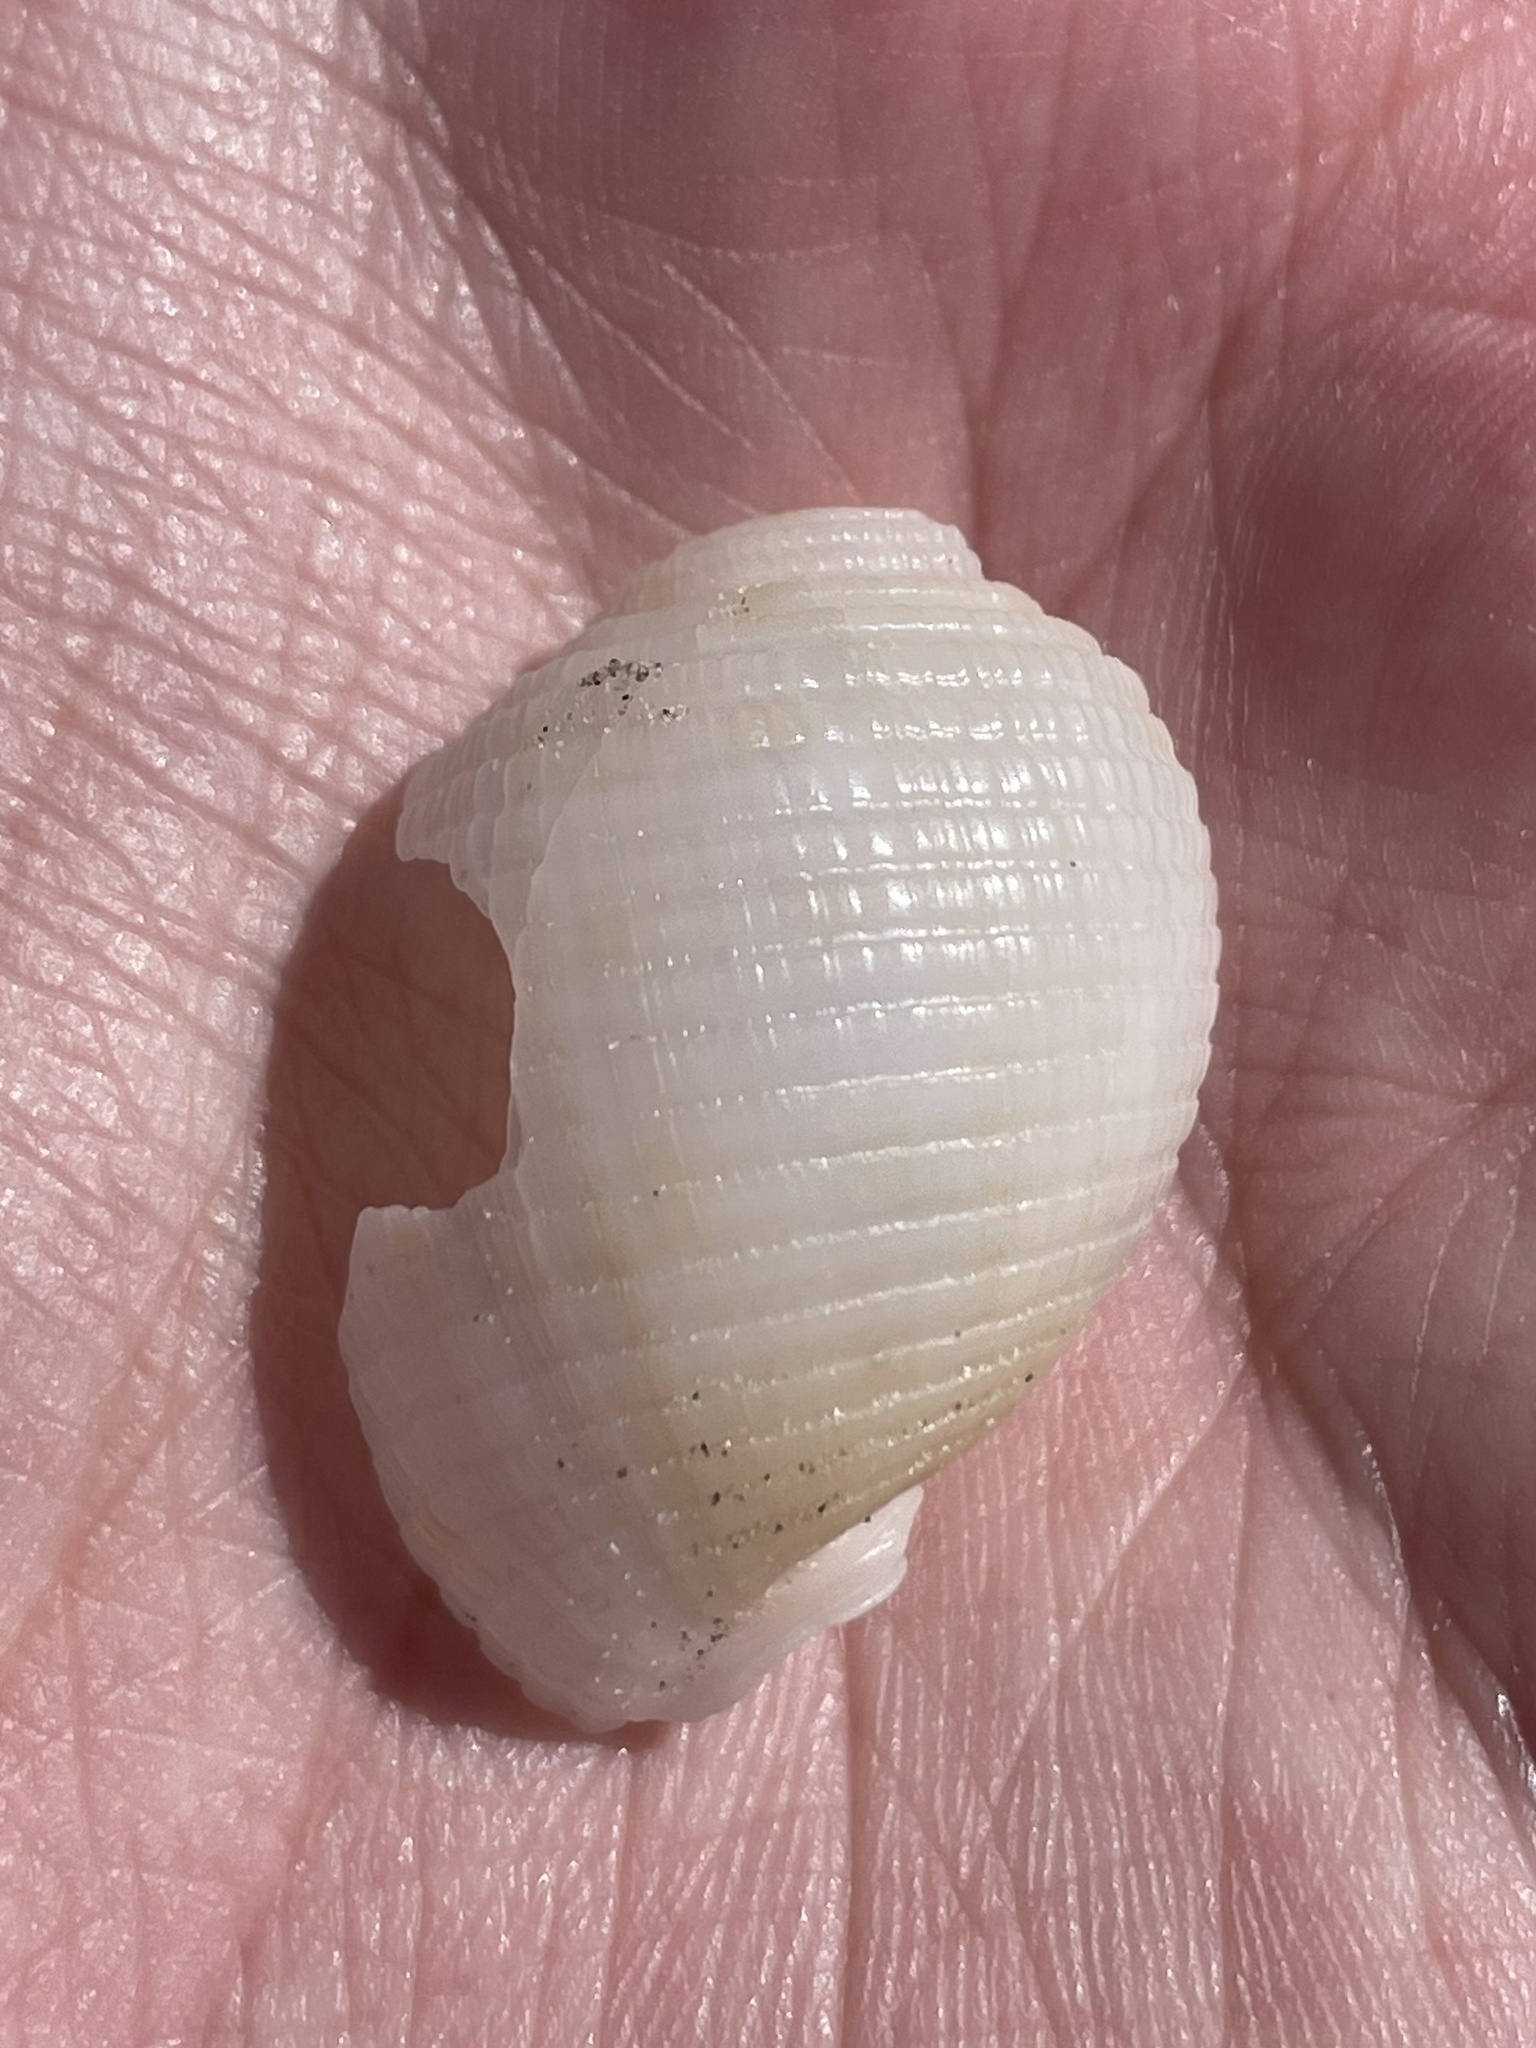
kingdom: Animalia
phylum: Mollusca
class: Gastropoda
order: Littorinimorpha
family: Cassidae
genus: Semicassis
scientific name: Semicassis granulata
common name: Scotch bonnet
